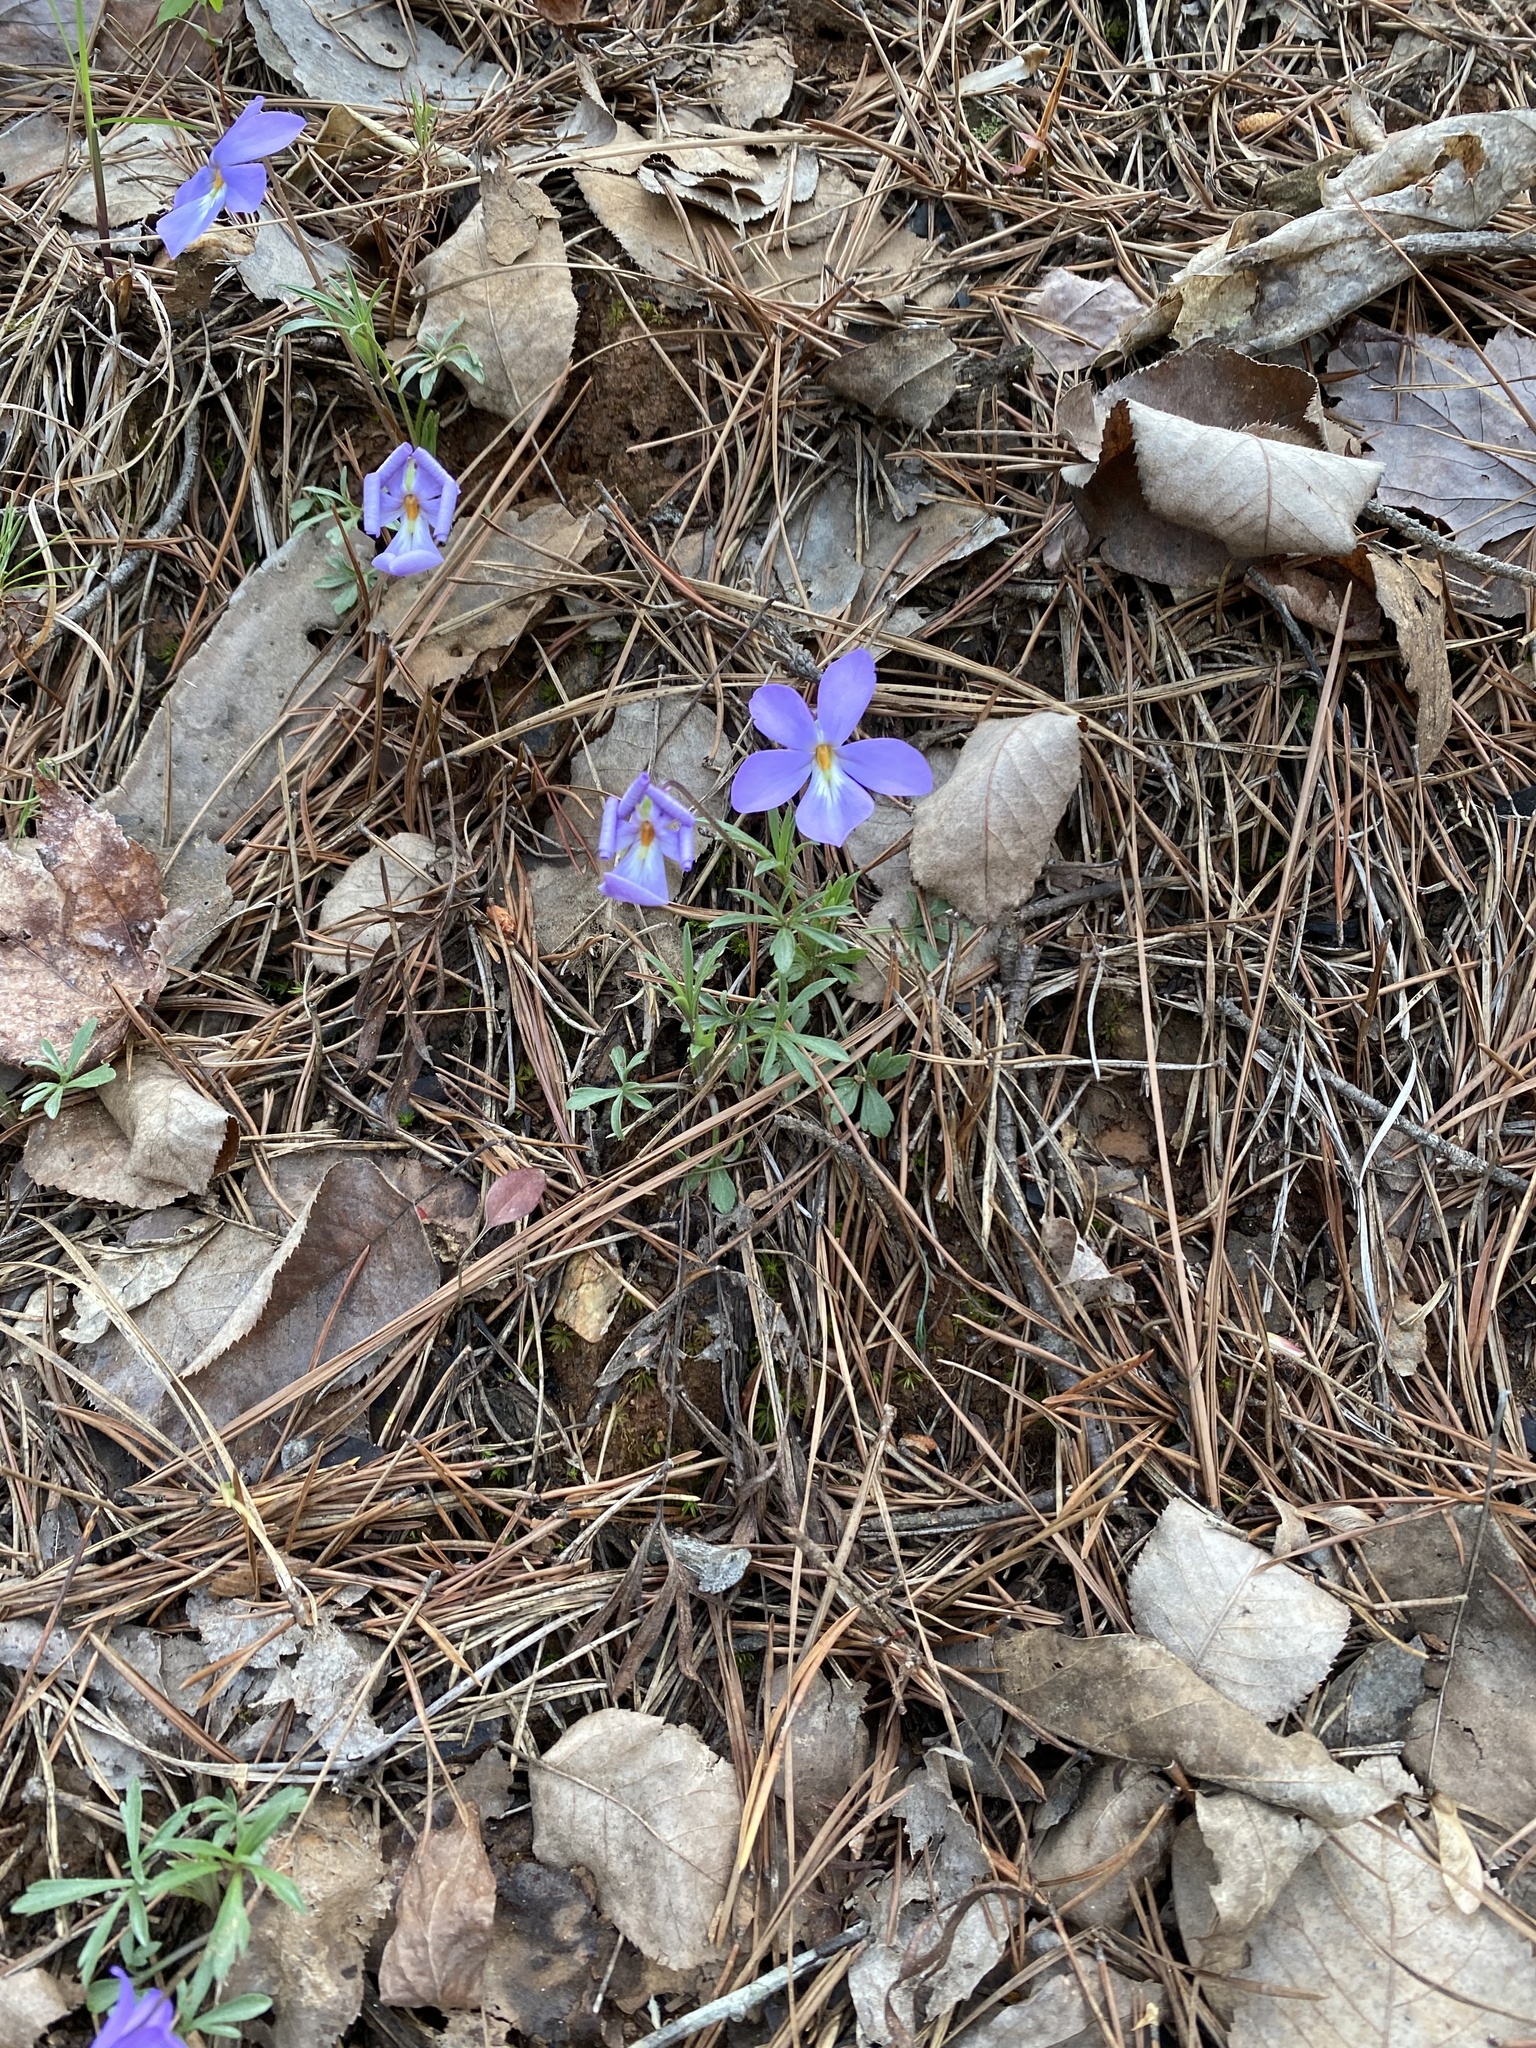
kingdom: Plantae
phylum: Tracheophyta
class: Magnoliopsida
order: Malpighiales
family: Violaceae
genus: Viola
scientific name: Viola pedata
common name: Pansy violet
